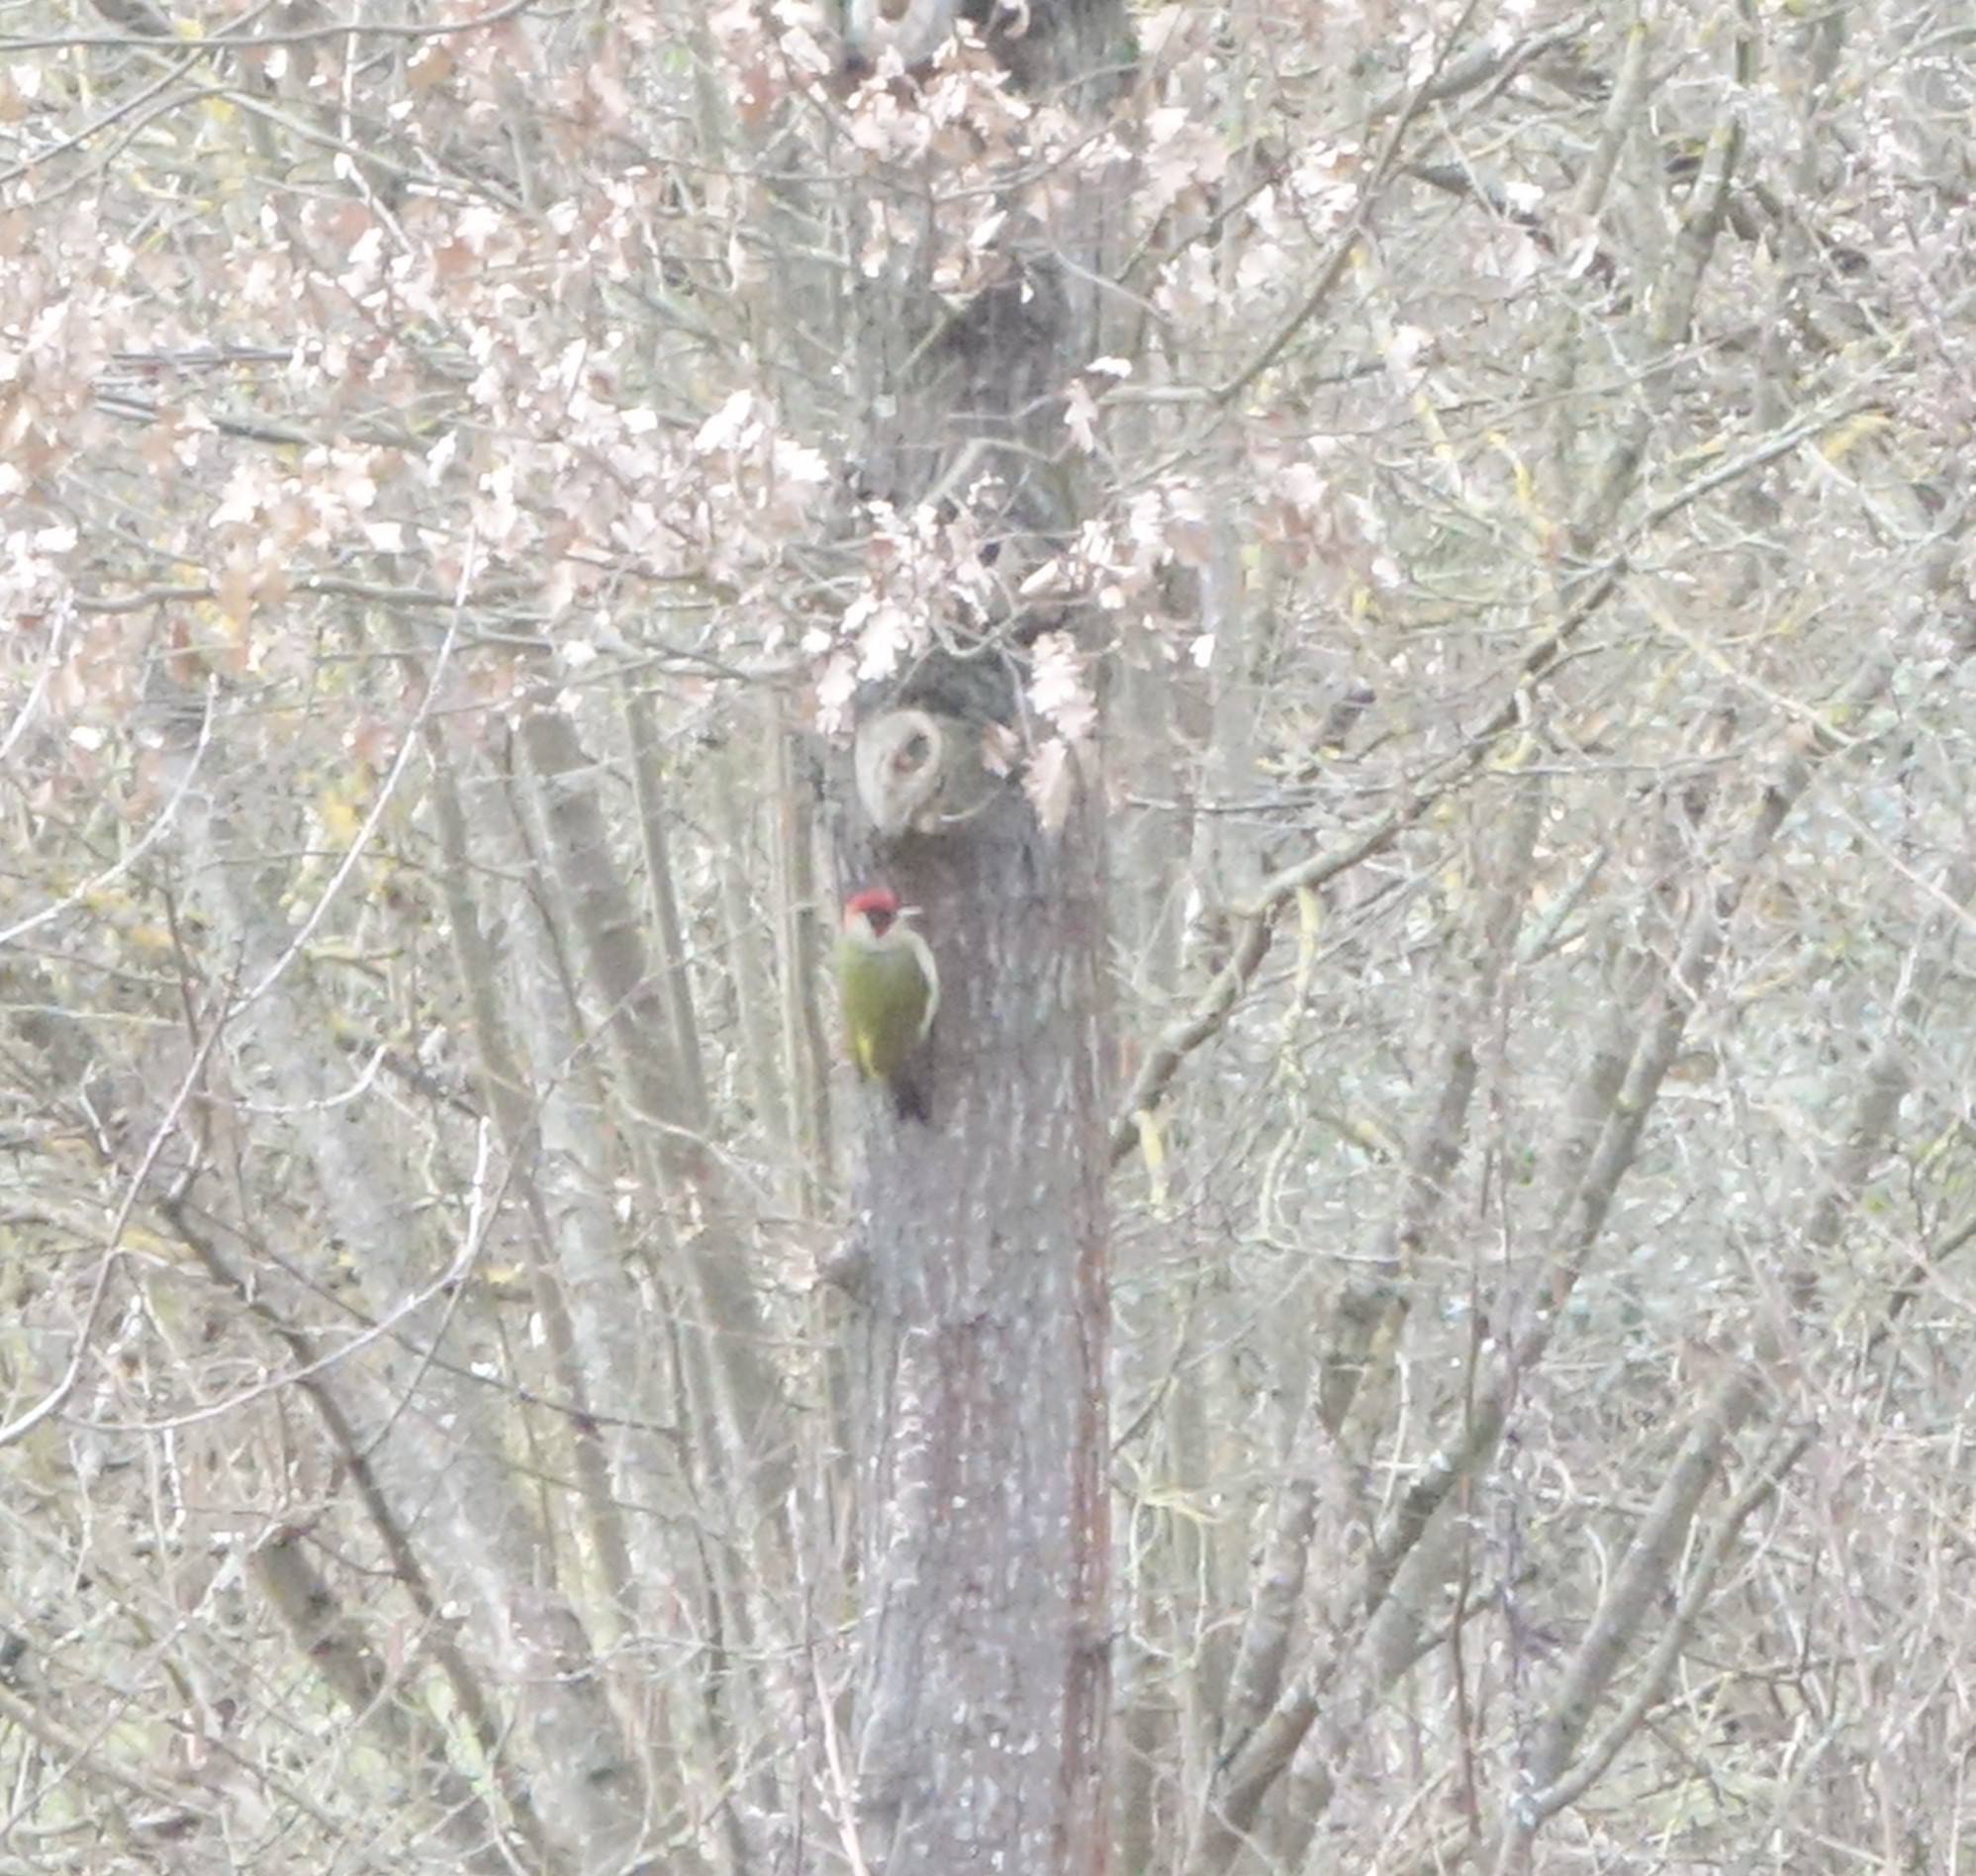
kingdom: Animalia
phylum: Chordata
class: Aves
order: Piciformes
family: Picidae
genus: Picus
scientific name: Picus viridis
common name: European green woodpecker
